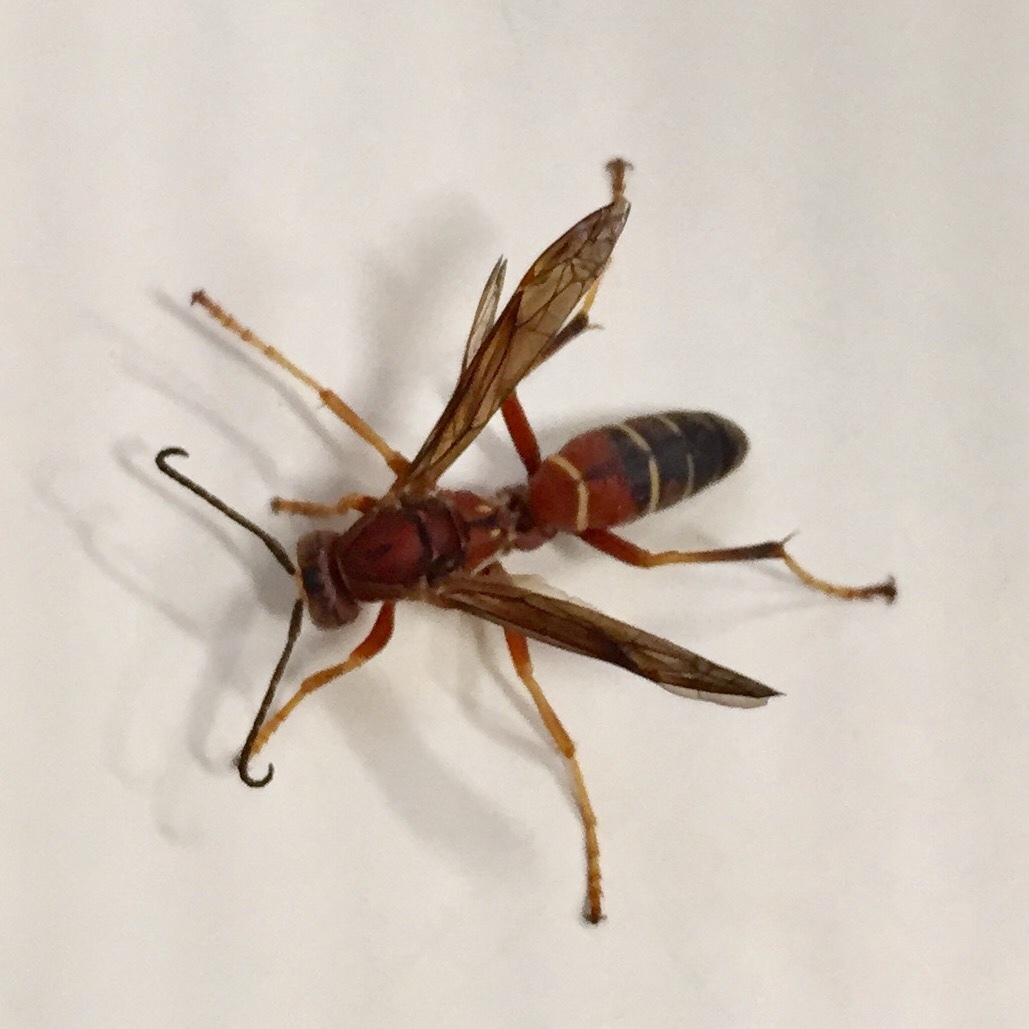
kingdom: Animalia
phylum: Arthropoda
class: Insecta
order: Hymenoptera
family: Eumenidae
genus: Polistes
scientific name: Polistes fuscatus
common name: Dark paper wasp
